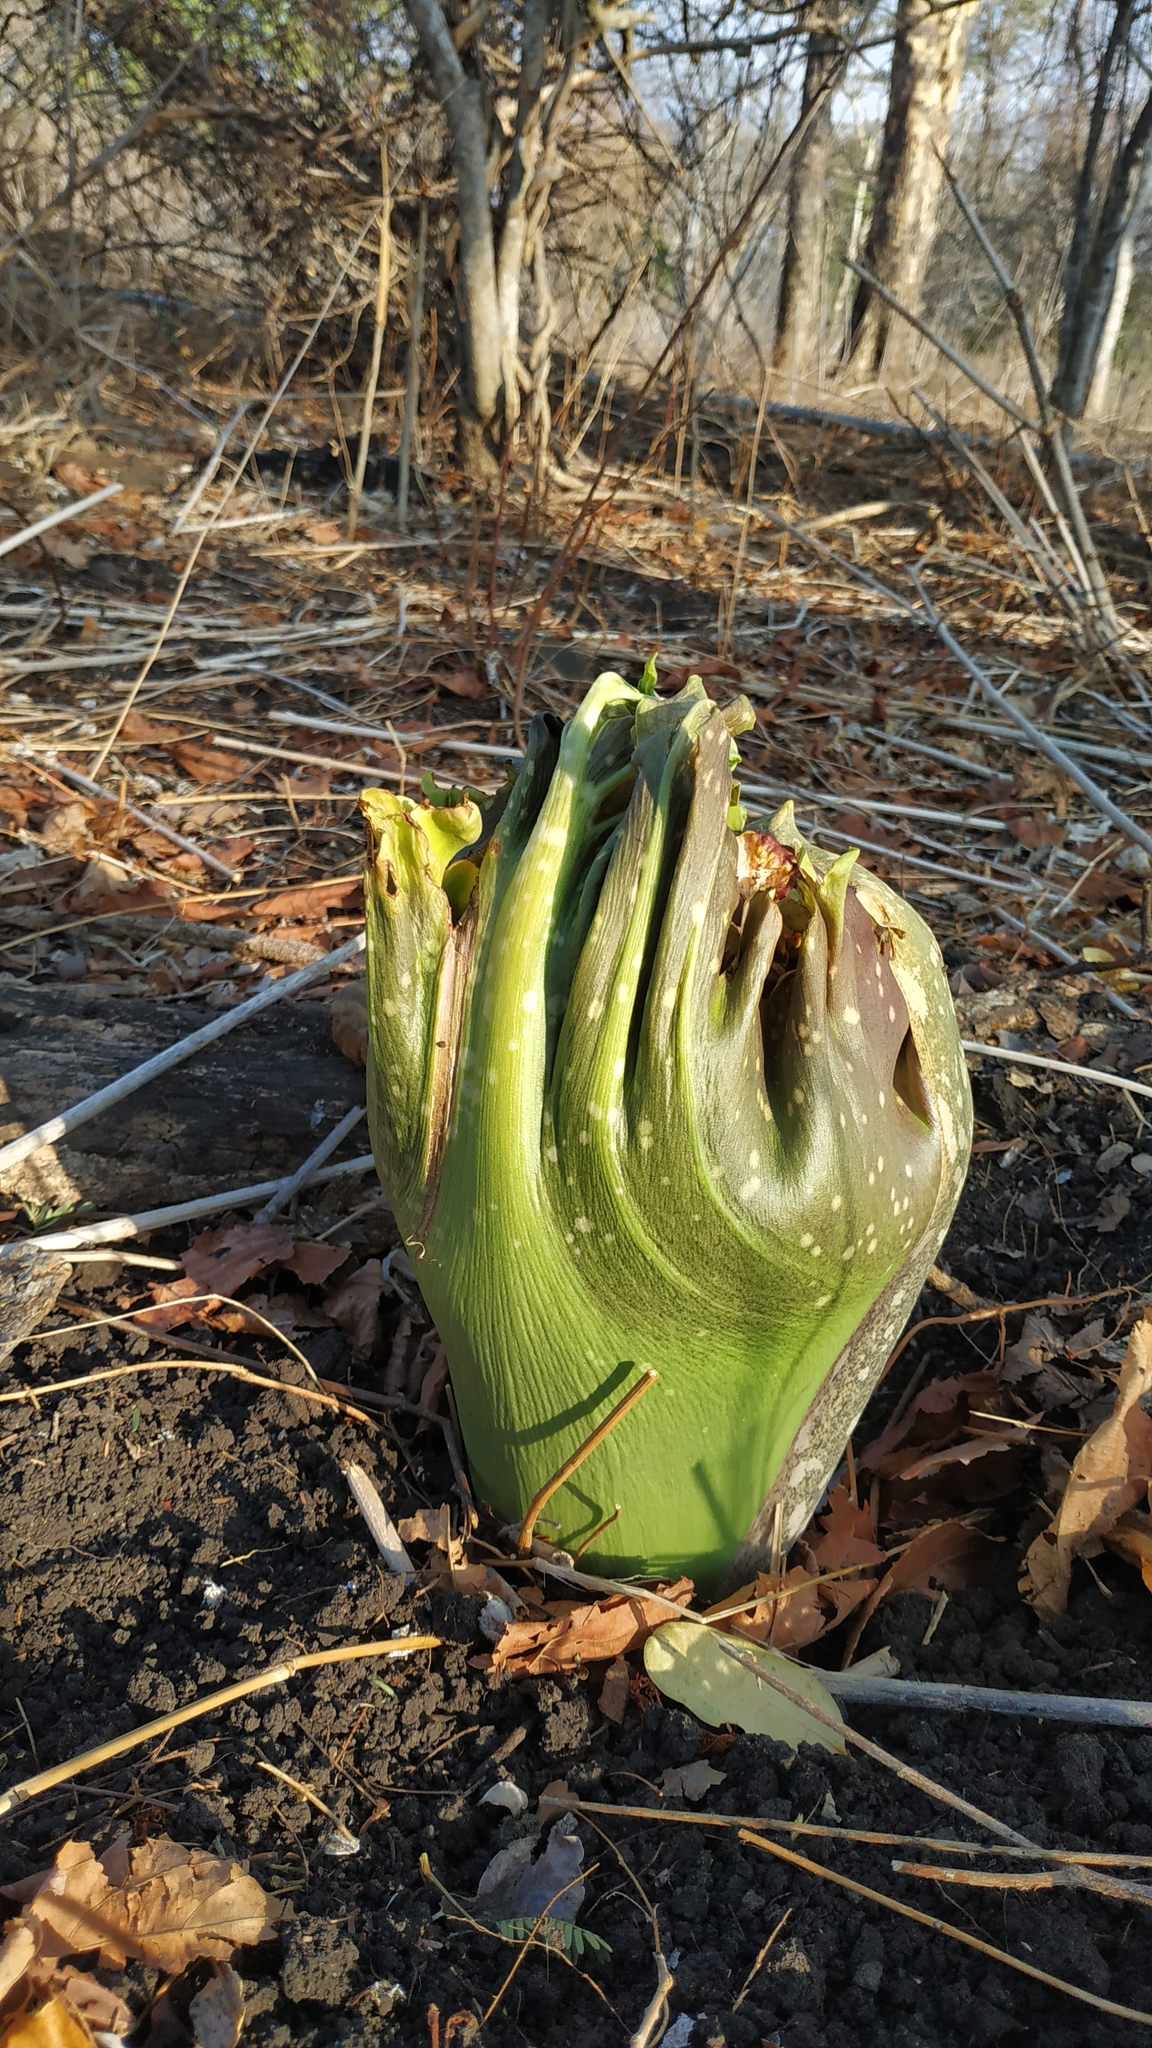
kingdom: Plantae
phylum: Tracheophyta
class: Liliopsida
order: Alismatales
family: Araceae
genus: Amorphophallus
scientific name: Amorphophallus paeoniifolius
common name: Telinga-potato
